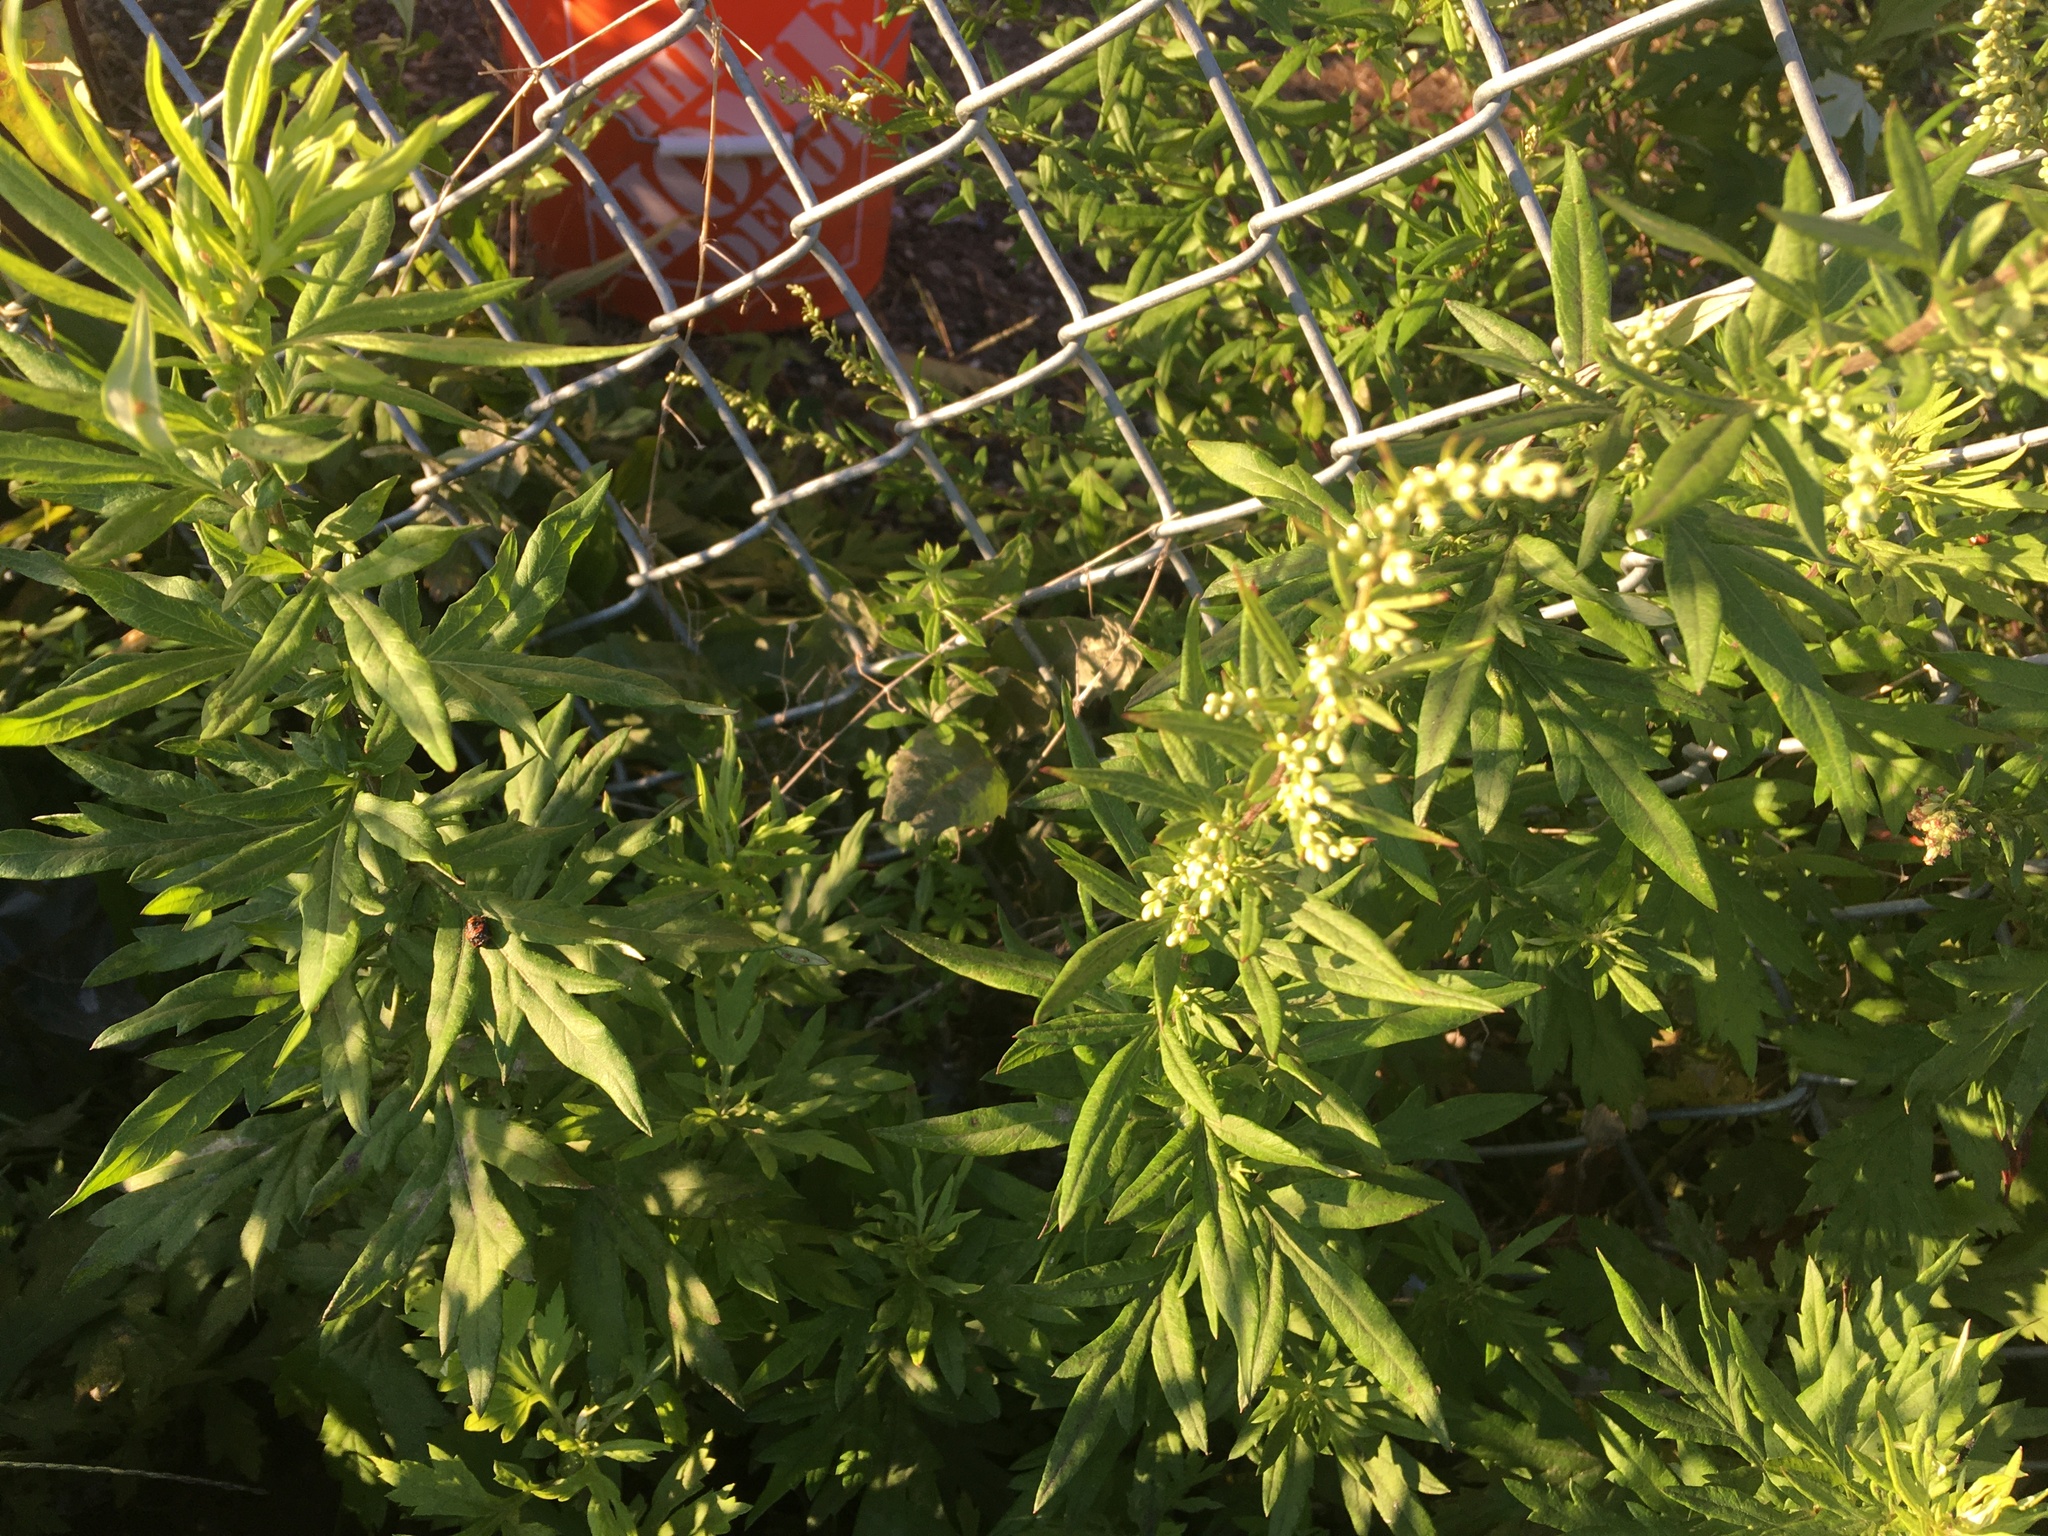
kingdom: Plantae
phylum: Tracheophyta
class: Magnoliopsida
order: Asterales
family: Asteraceae
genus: Artemisia
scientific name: Artemisia vulgaris
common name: Mugwort
